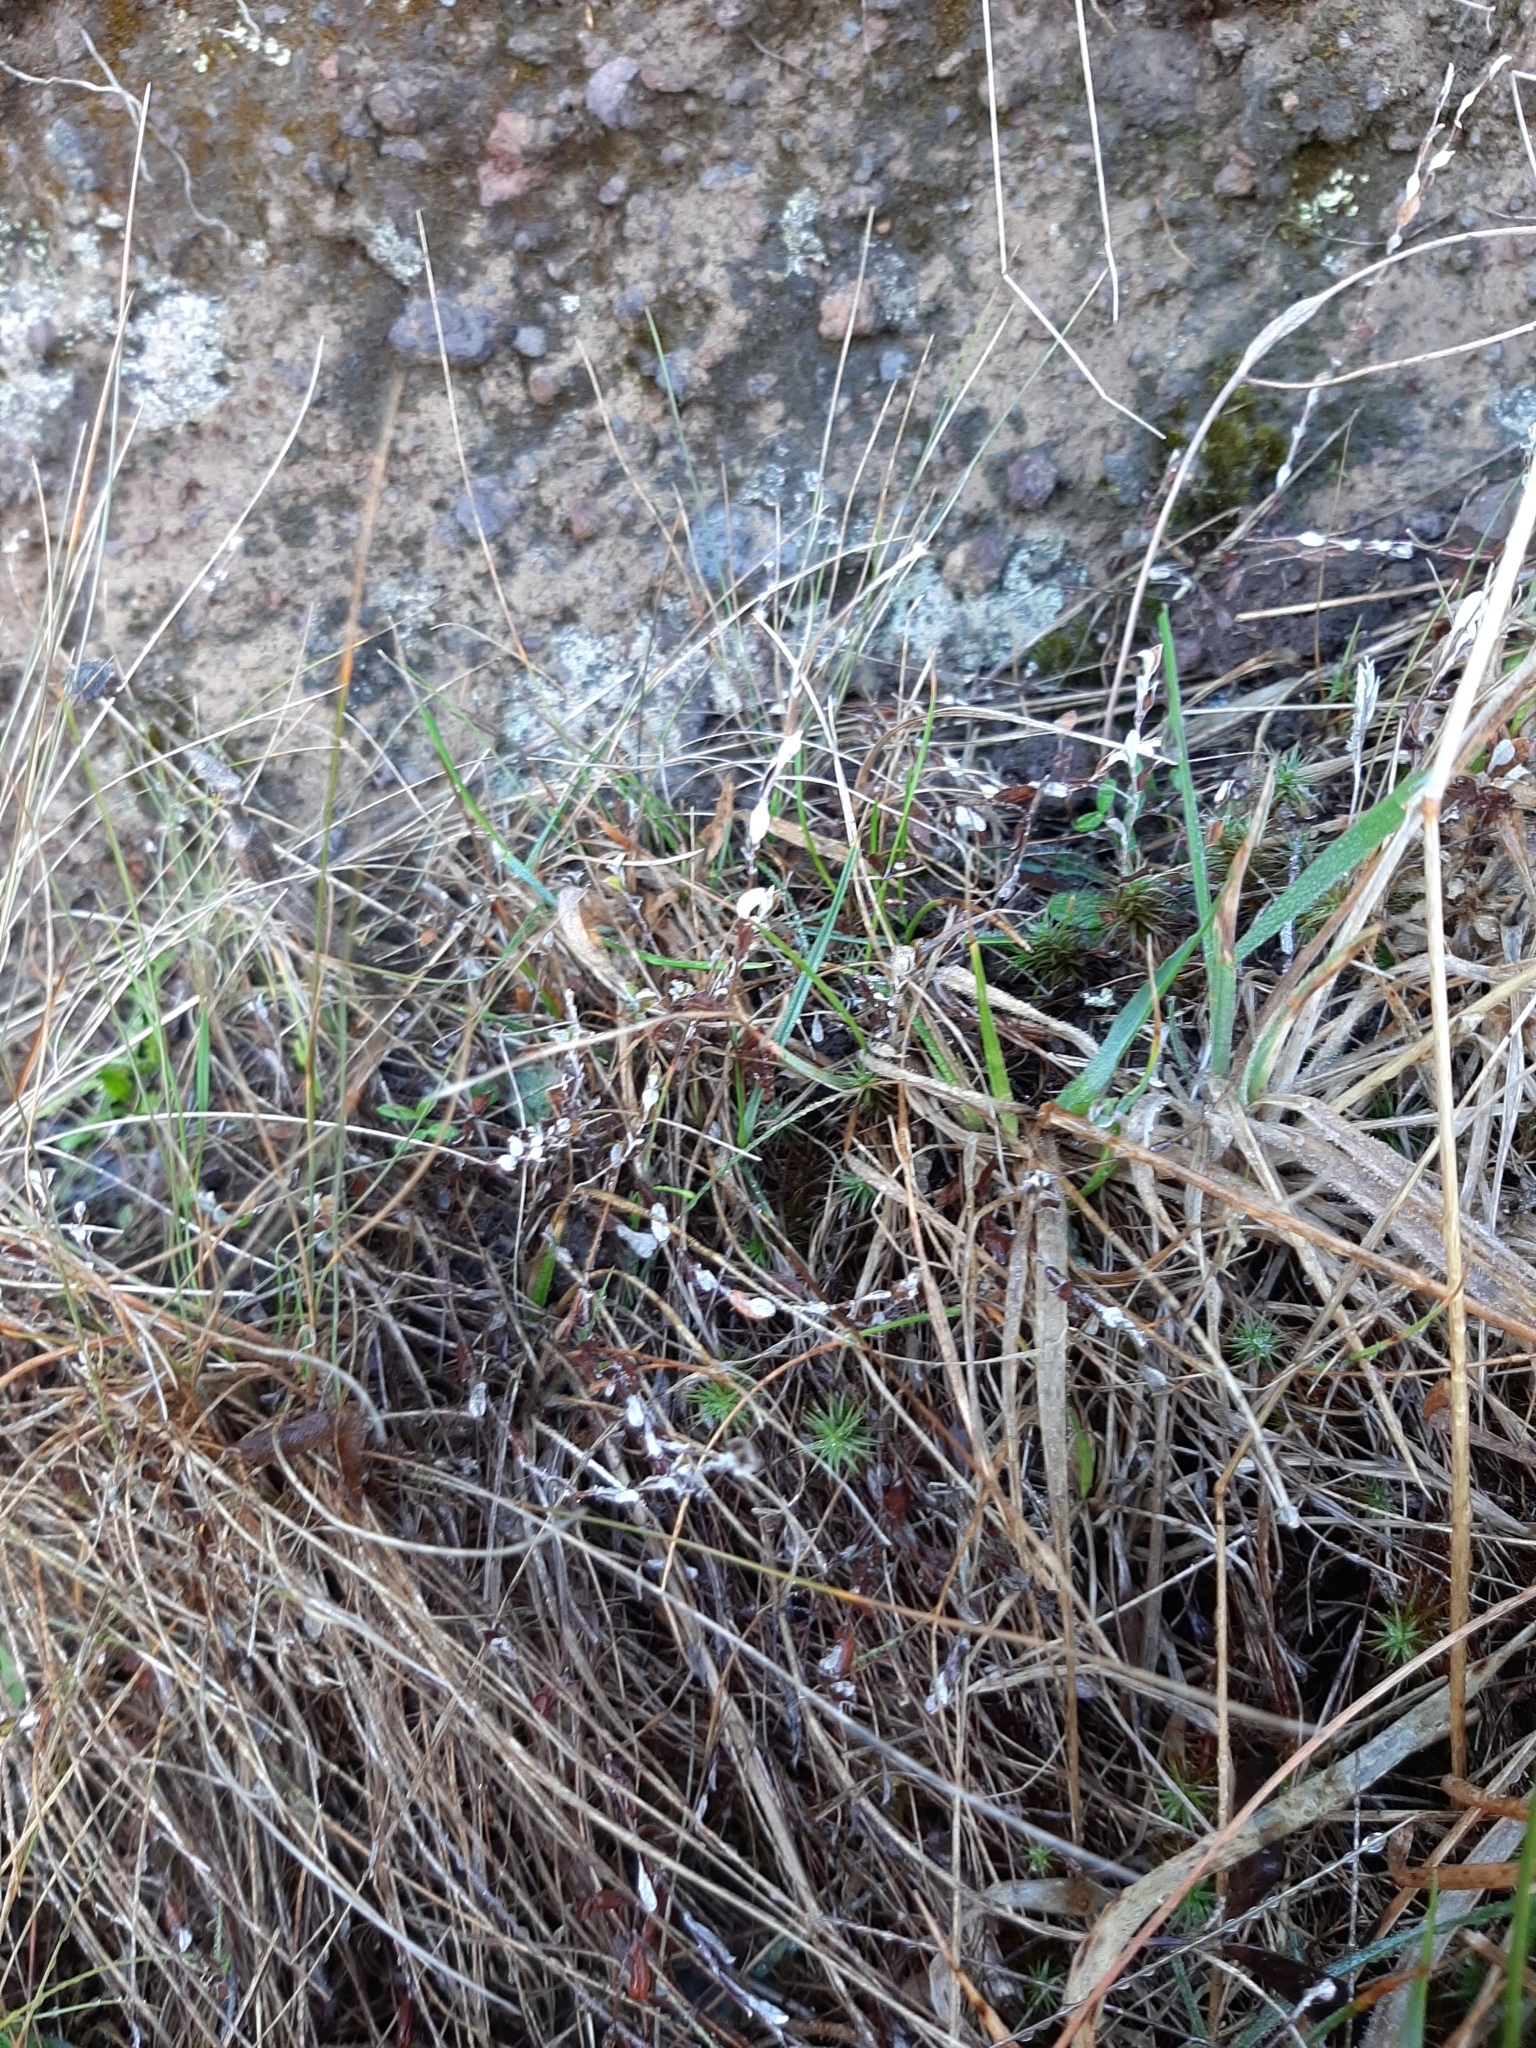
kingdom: Plantae
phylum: Tracheophyta
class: Magnoliopsida
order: Asterales
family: Asteraceae
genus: Helichrysum
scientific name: Helichrysum filicaule
